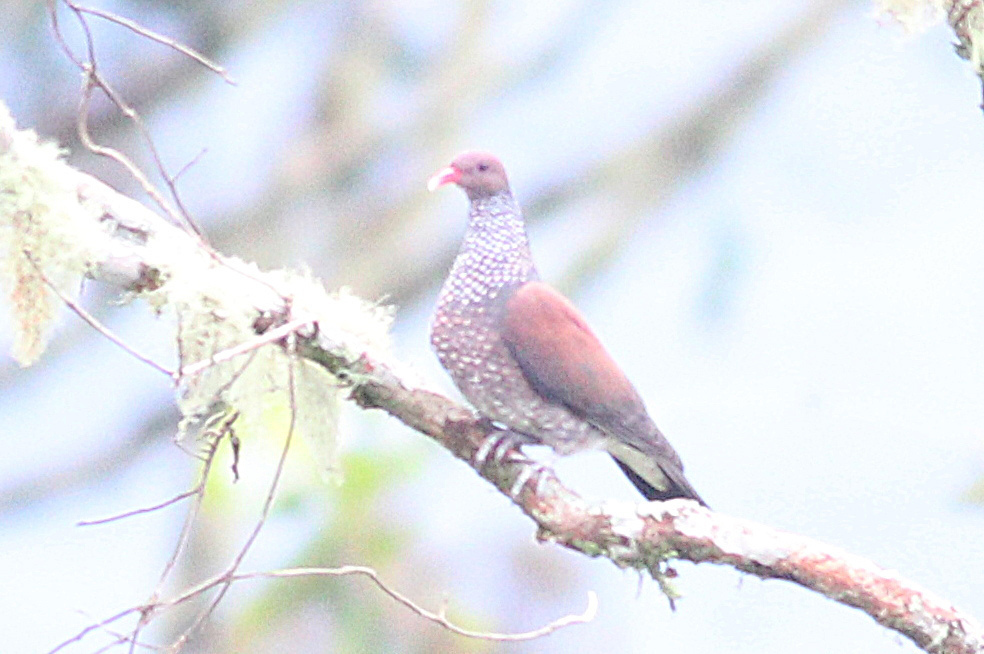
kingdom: Animalia
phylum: Chordata
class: Aves
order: Columbiformes
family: Columbidae
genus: Patagioenas
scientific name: Patagioenas speciosa
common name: Scaled pigeon
